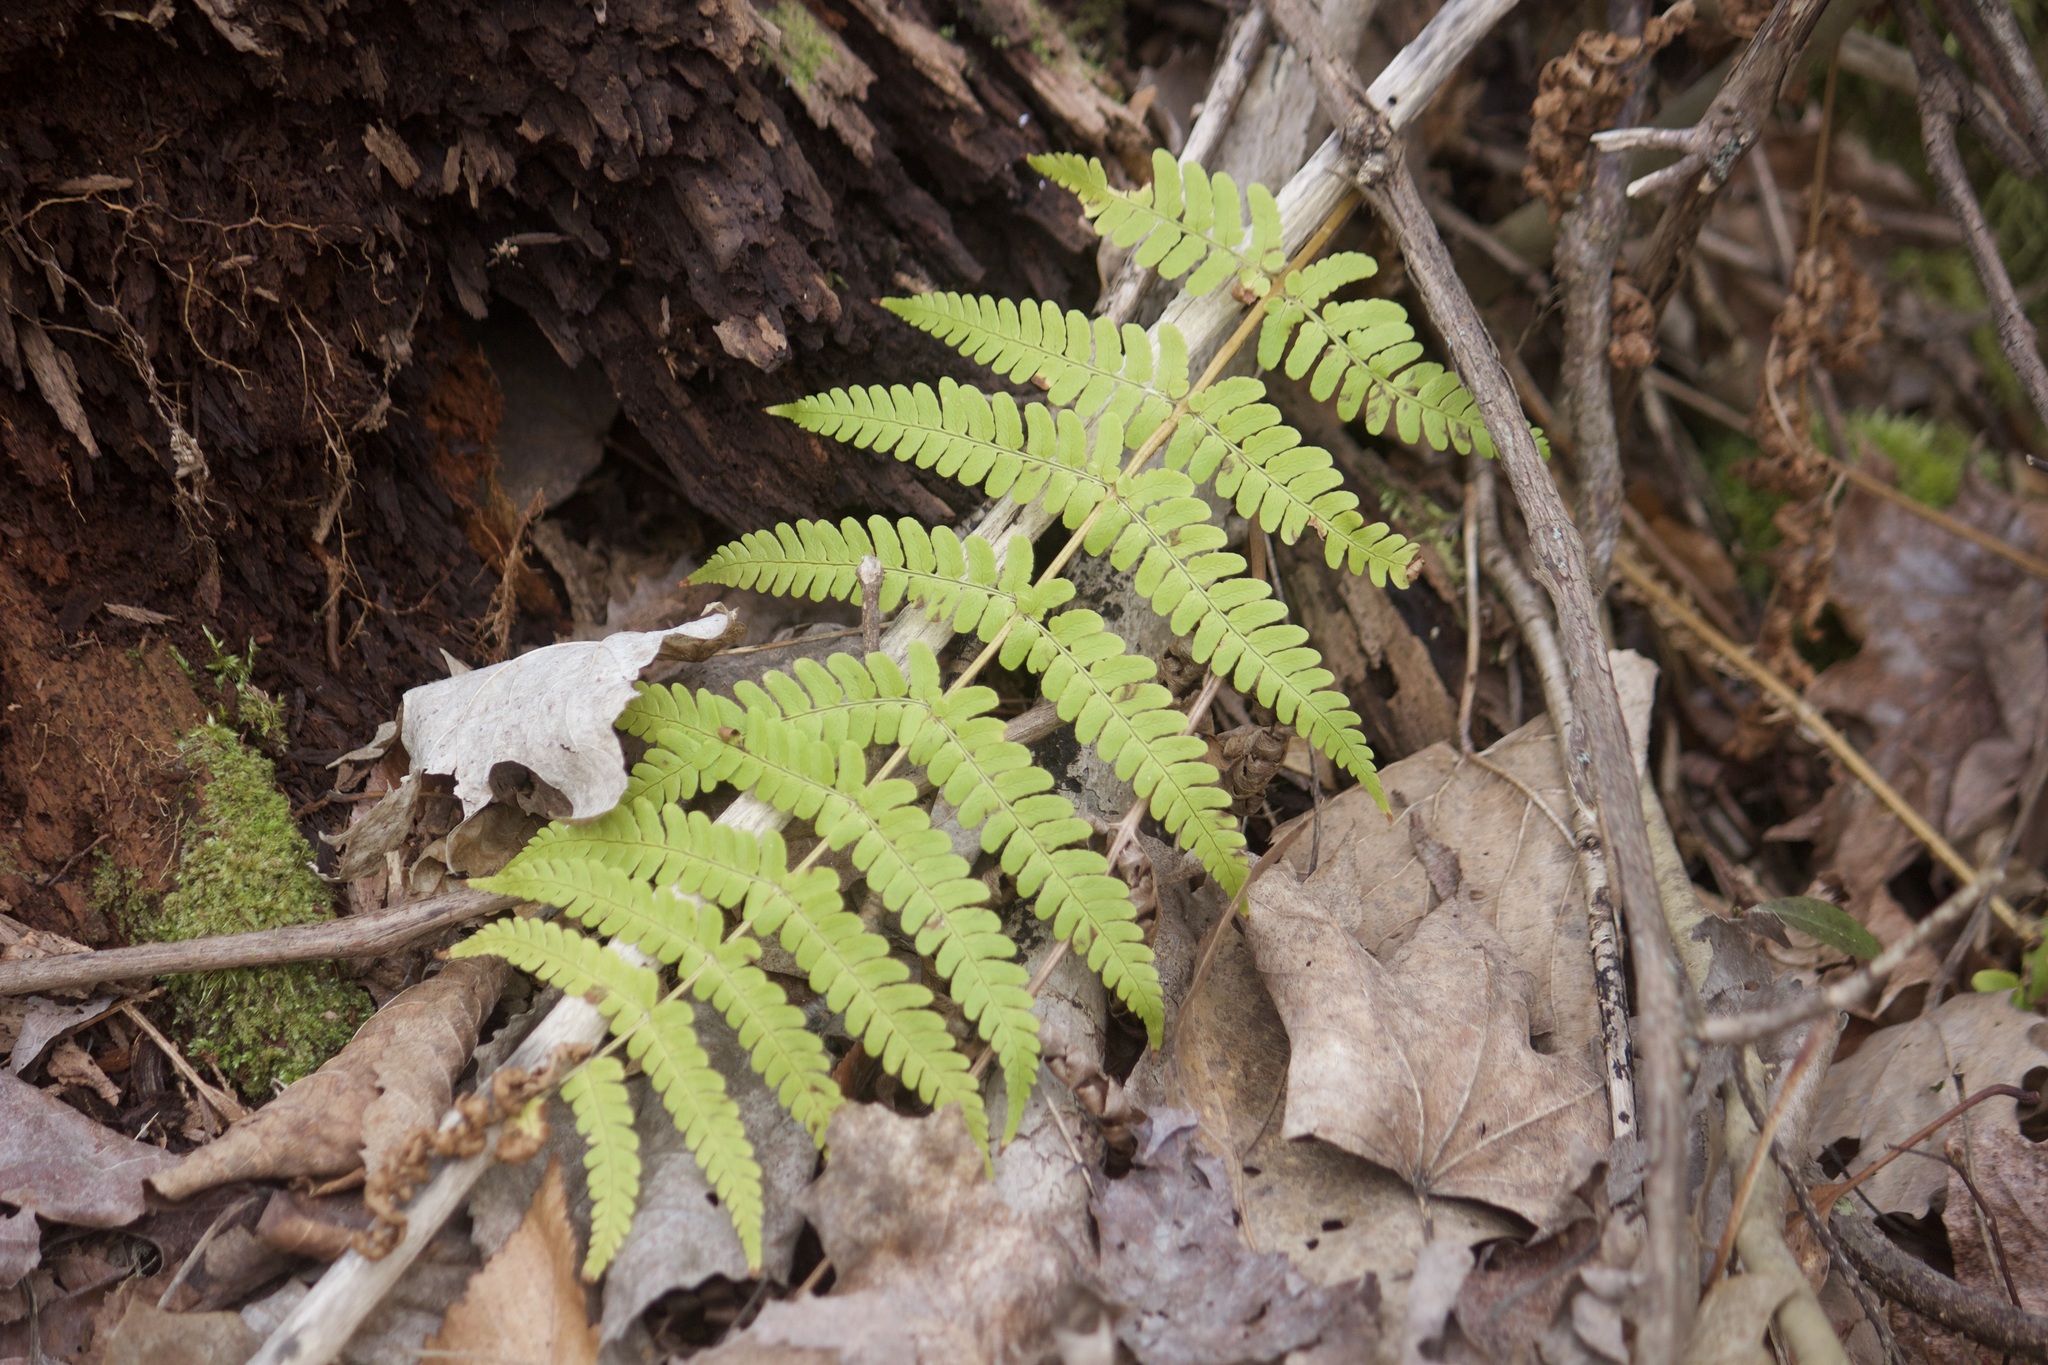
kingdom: Plantae
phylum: Tracheophyta
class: Polypodiopsida
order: Polypodiales
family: Dryopteridaceae
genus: Dryopteris
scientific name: Dryopteris marginalis
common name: Marginal wood fern
